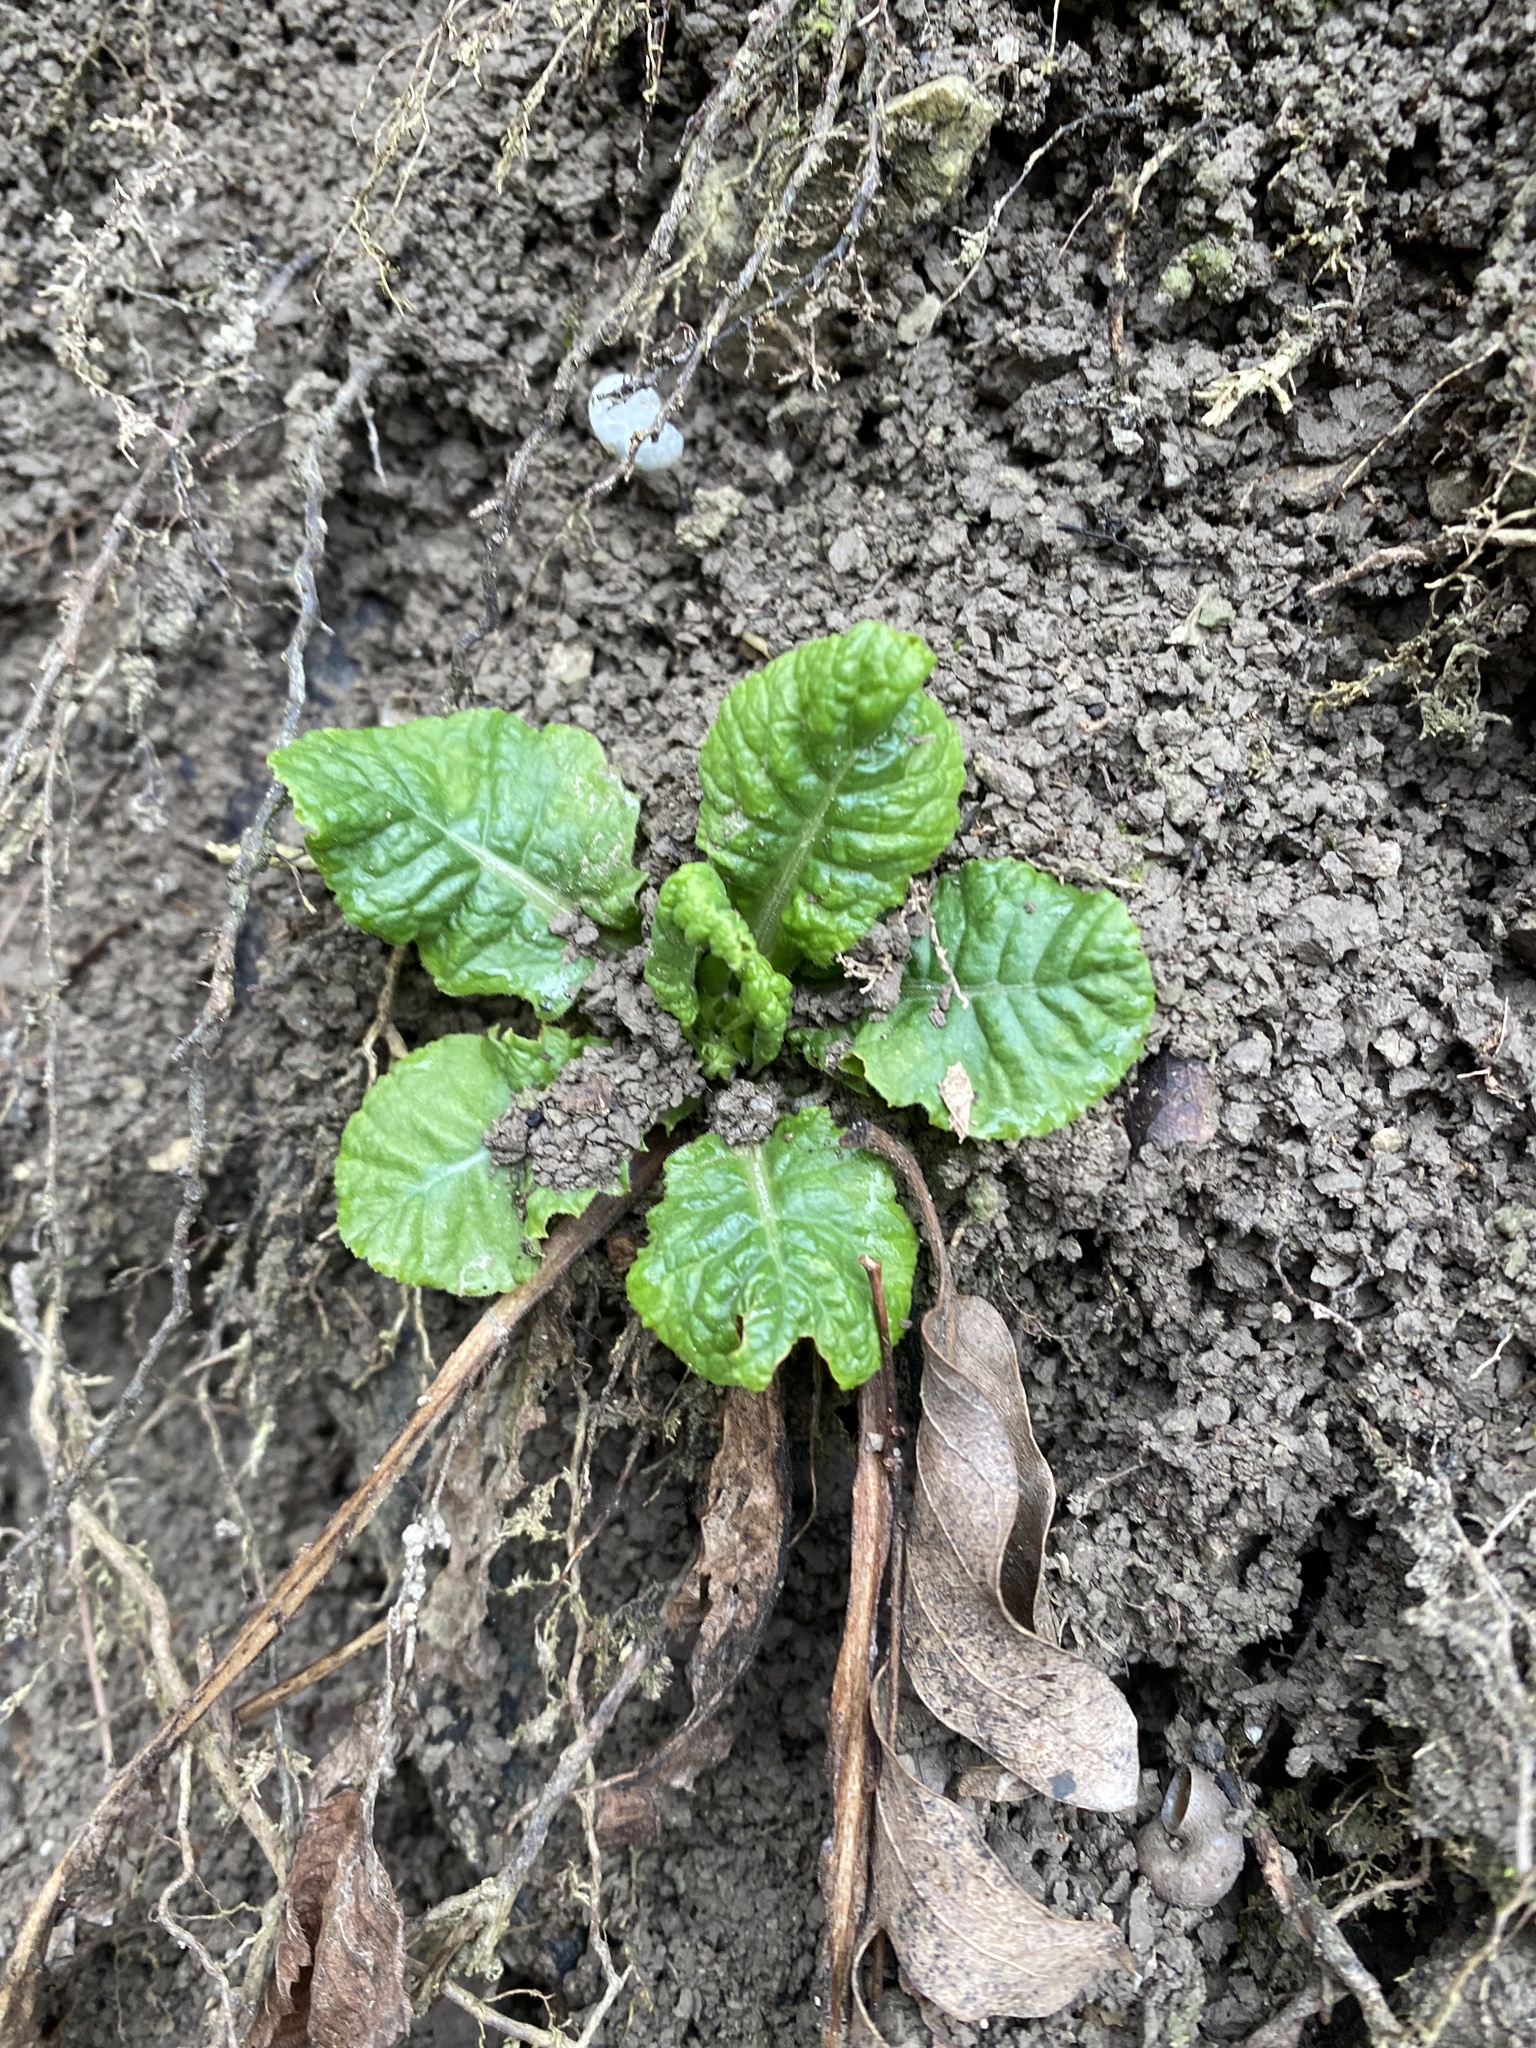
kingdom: Plantae
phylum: Tracheophyta
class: Magnoliopsida
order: Ericales
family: Primulaceae
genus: Primula
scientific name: Primula vulgaris
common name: Primrose
